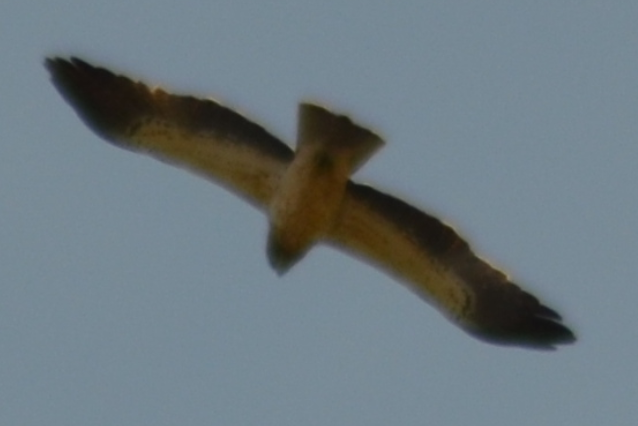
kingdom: Animalia
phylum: Chordata
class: Aves
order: Accipitriformes
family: Accipitridae
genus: Hieraaetus
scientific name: Hieraaetus pennatus
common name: Booted eagle
